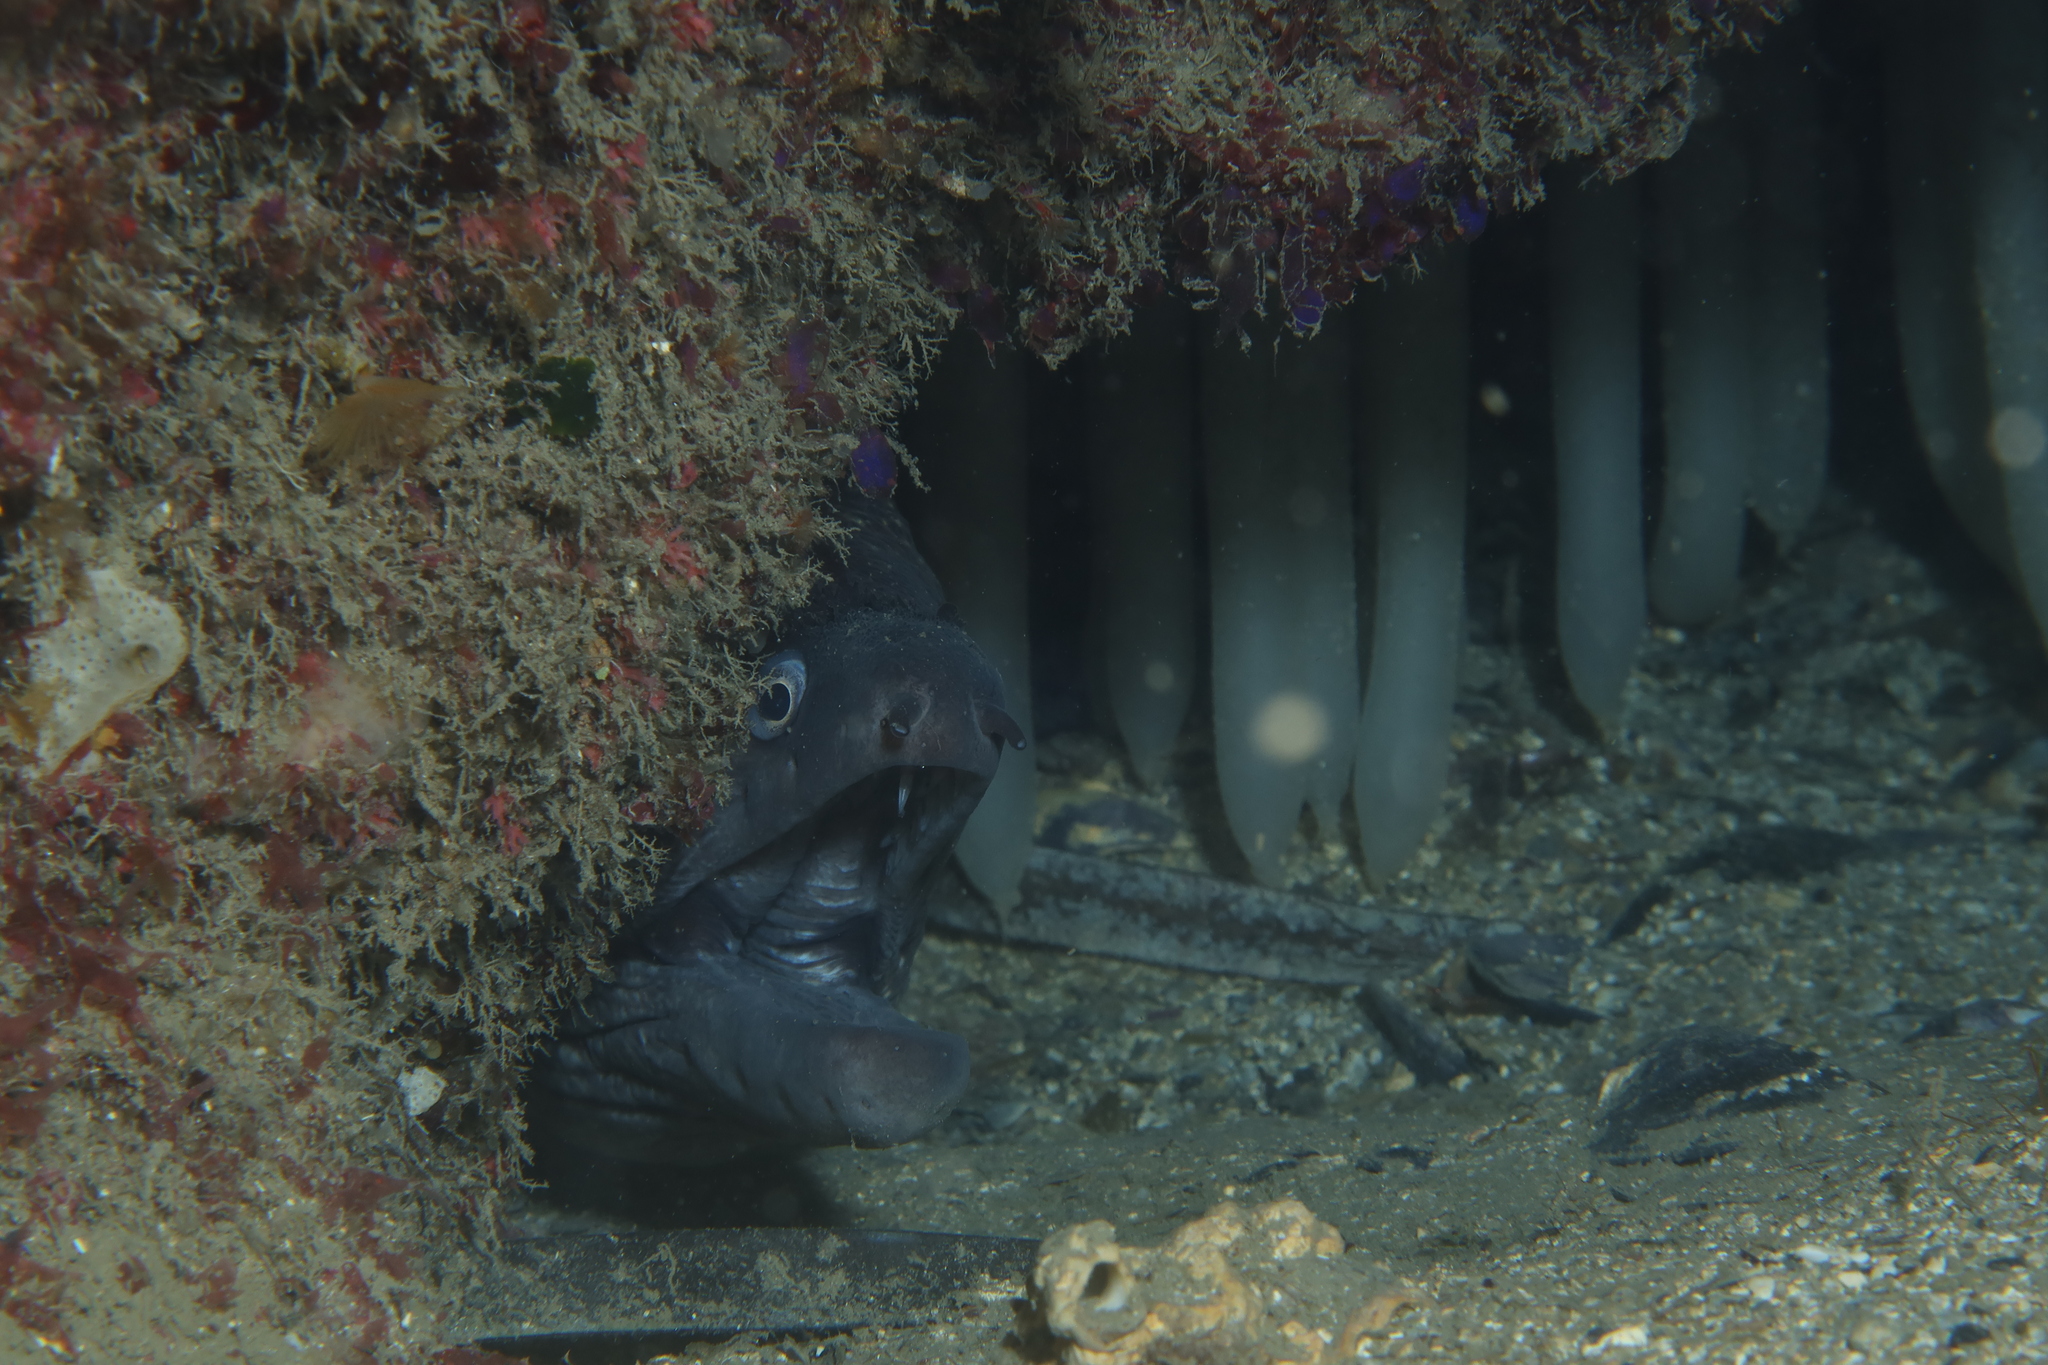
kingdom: Animalia
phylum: Chordata
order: Anguilliformes
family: Muraenidae
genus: Muraena
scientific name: Muraena helena
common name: Mediterranean moray
